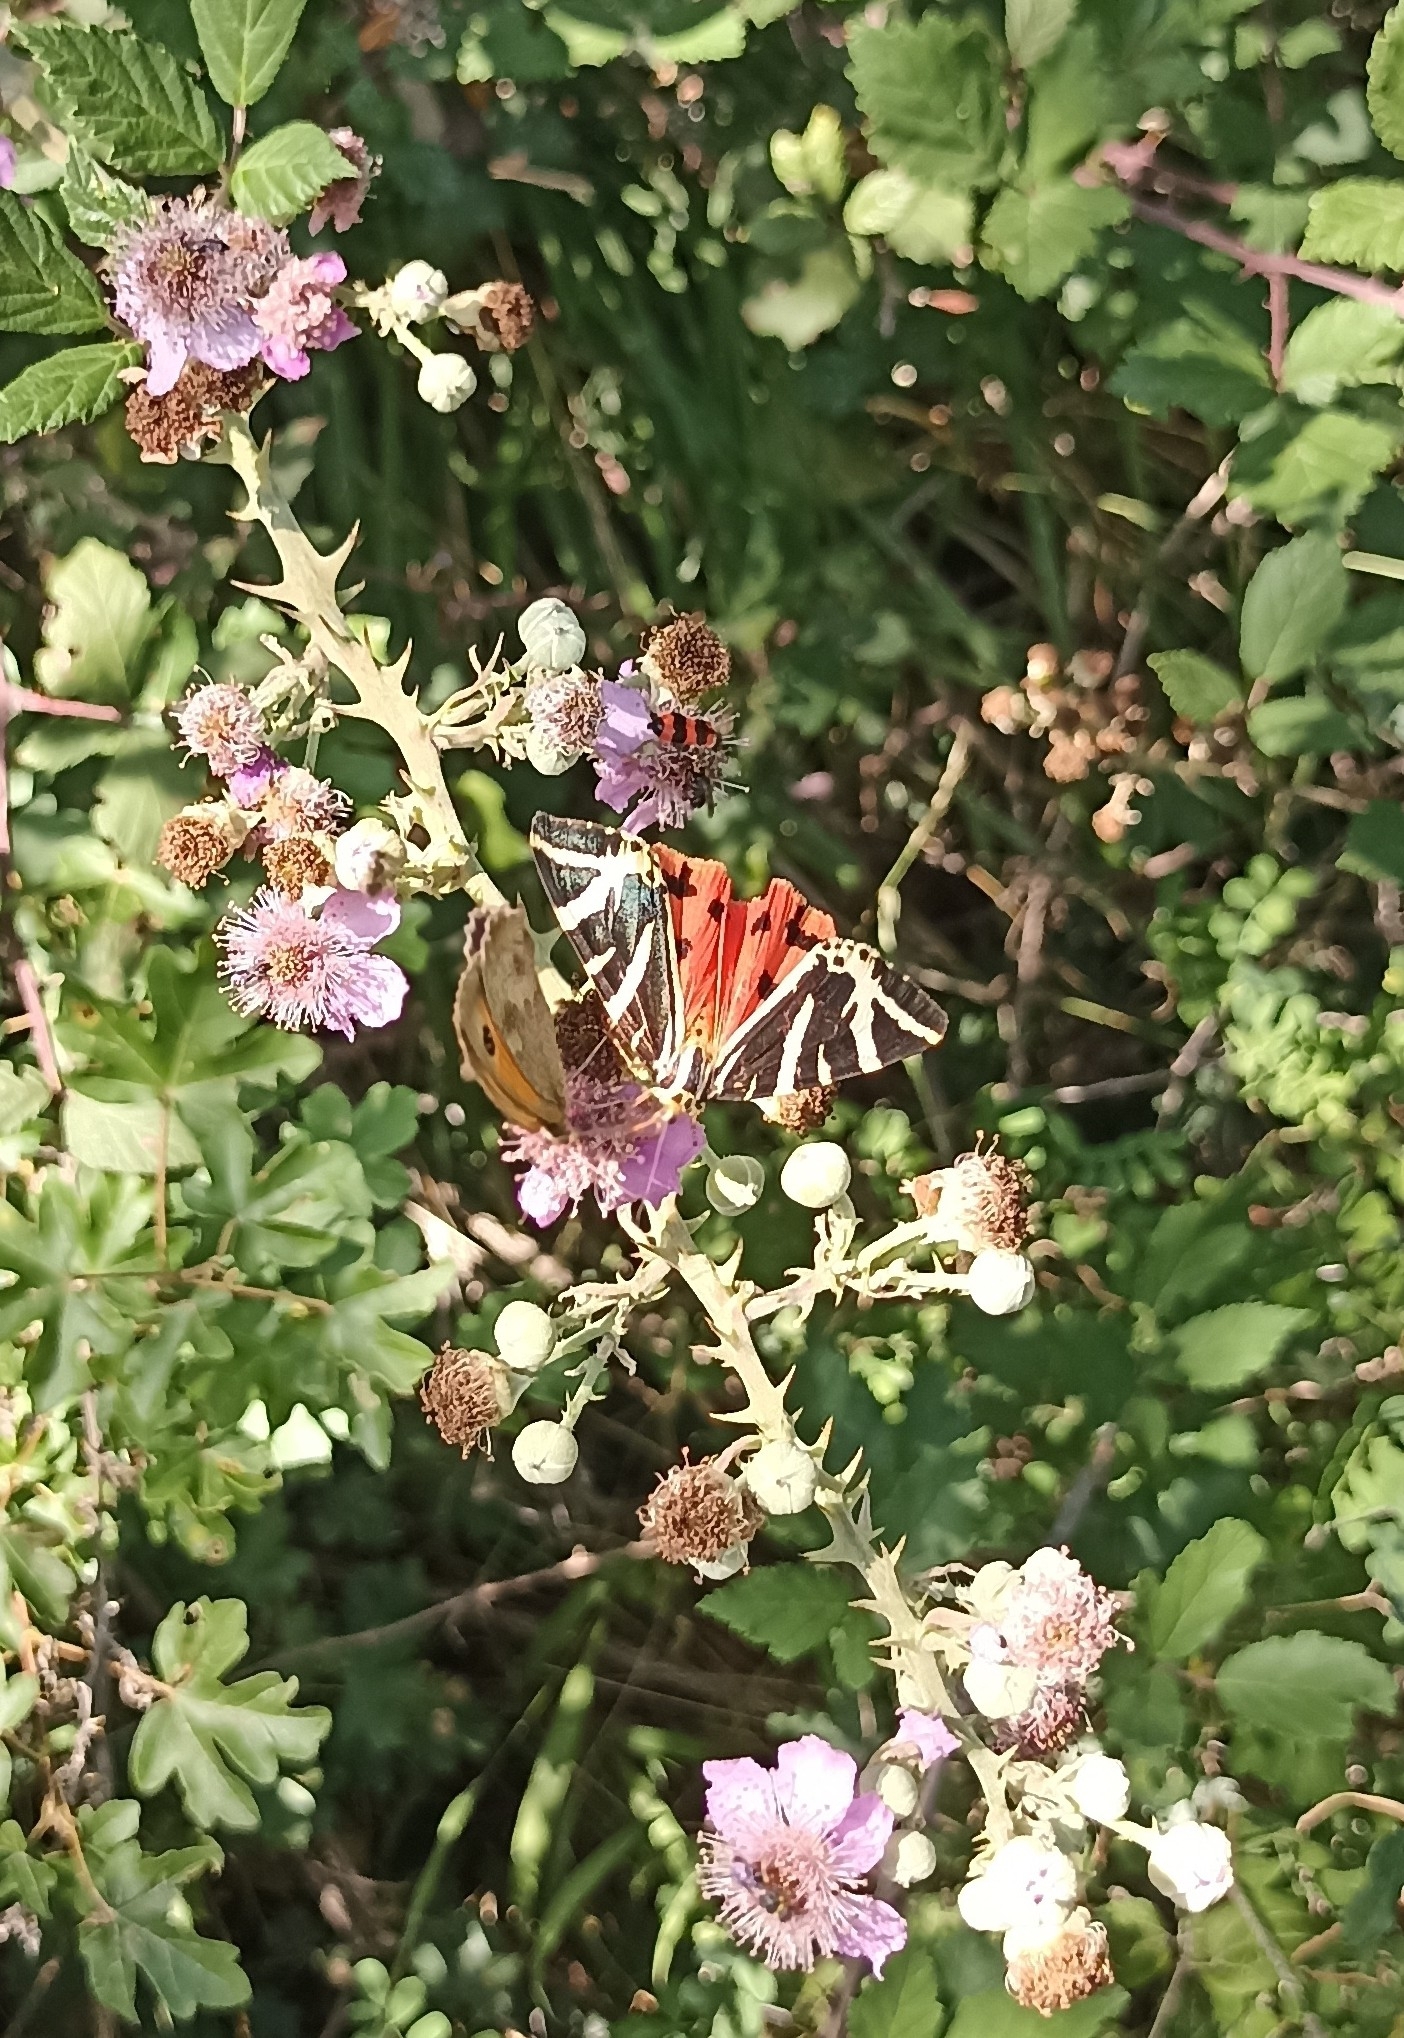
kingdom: Animalia
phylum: Arthropoda
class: Insecta
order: Lepidoptera
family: Erebidae
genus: Euplagia
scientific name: Euplagia quadripunctaria
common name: Jersey tiger
